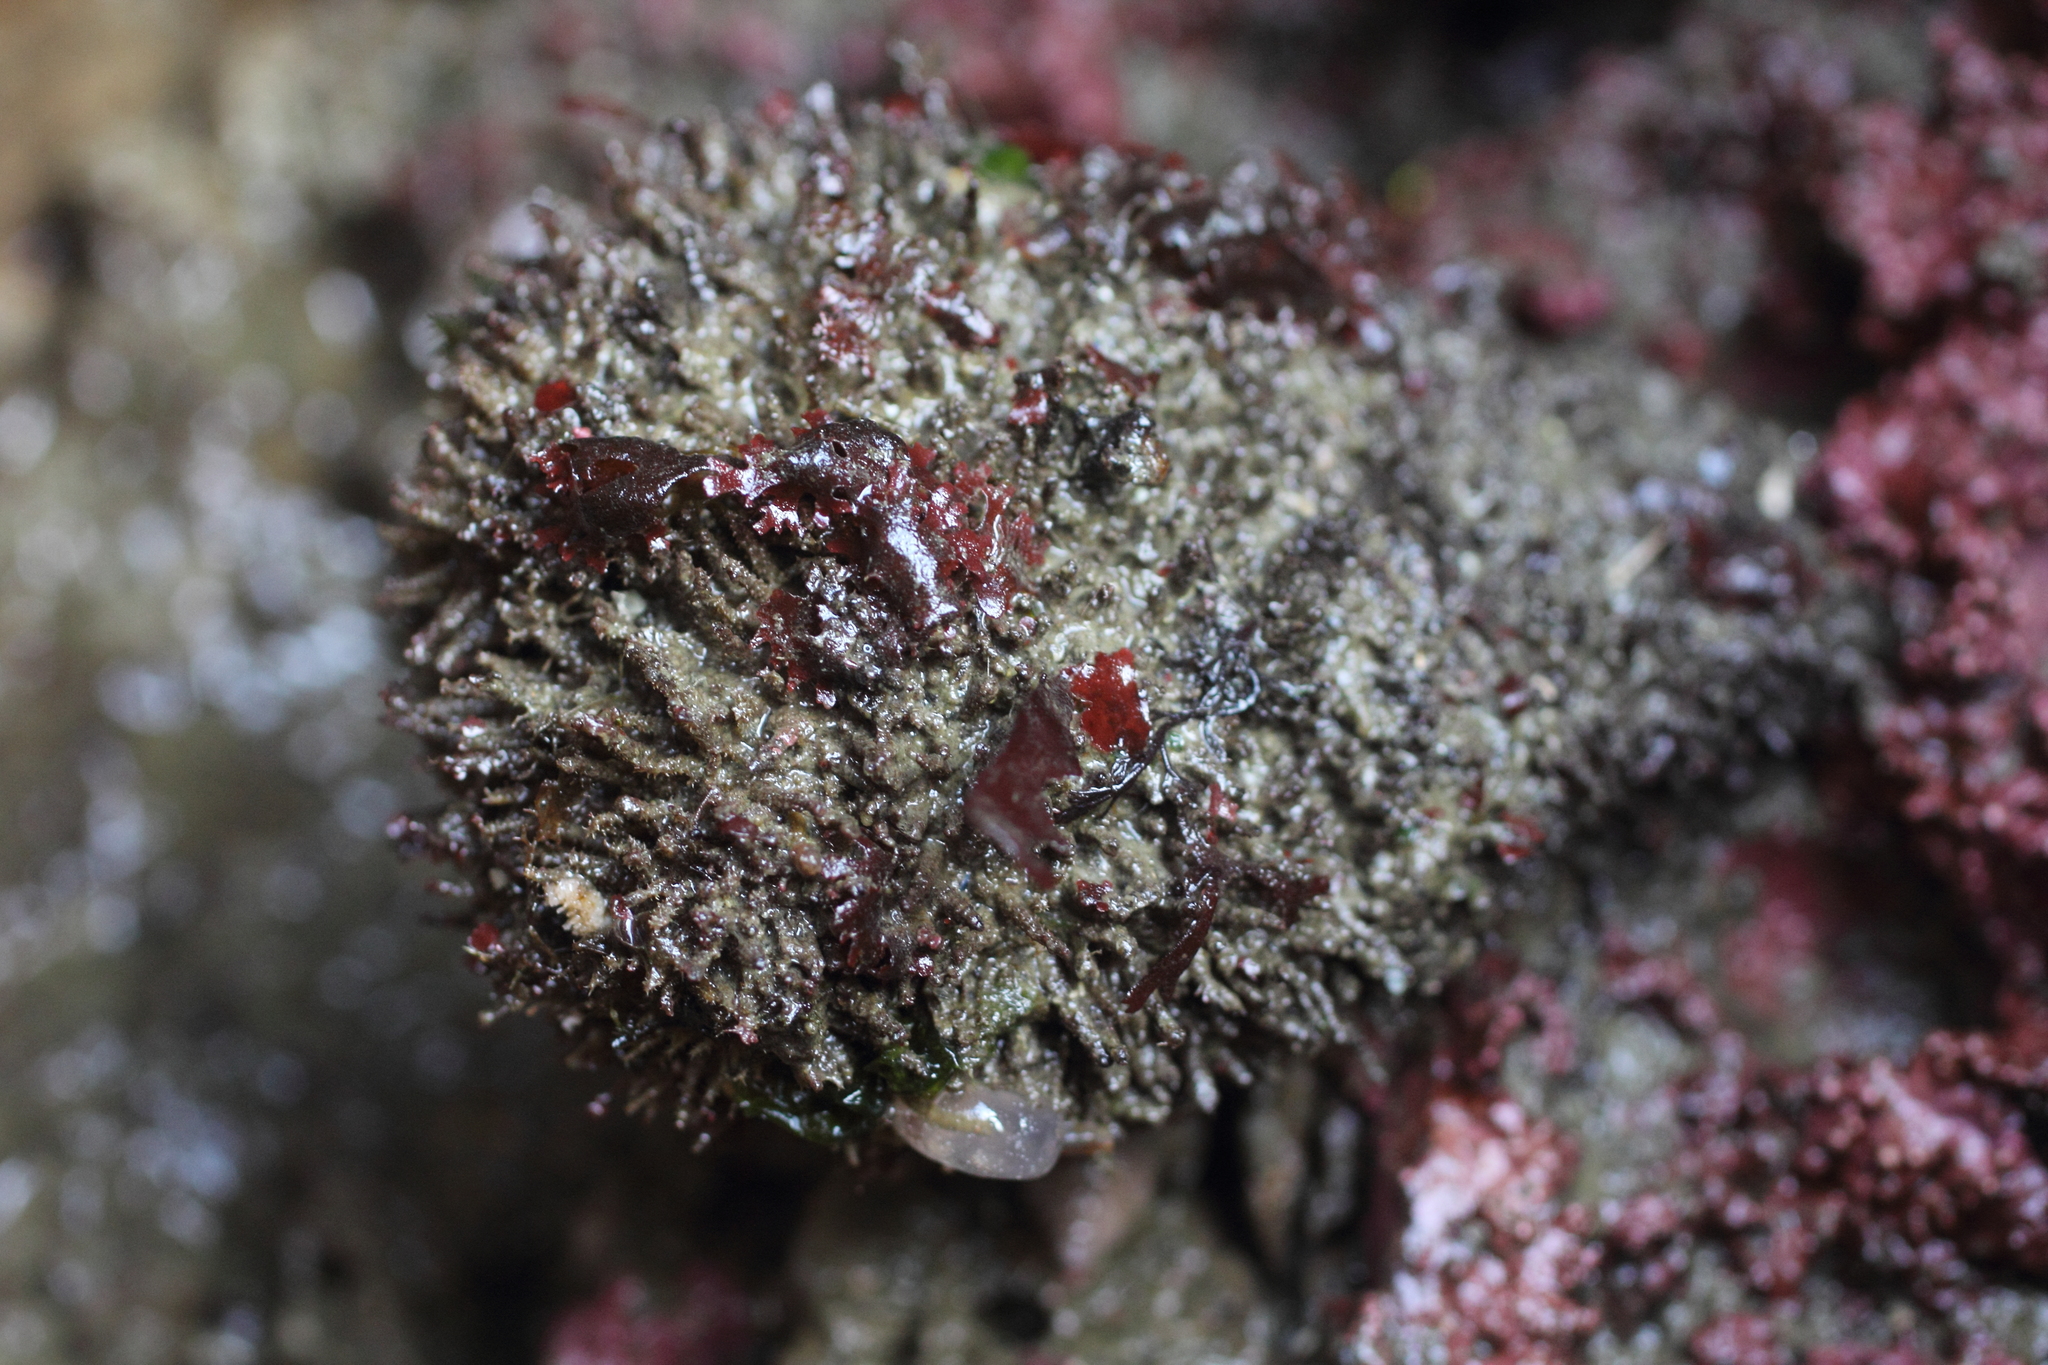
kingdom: Animalia
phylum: Chordata
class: Ascidiacea
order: Stolidobranchia
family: Pyuridae
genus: Halocynthia
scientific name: Halocynthia igaboja
